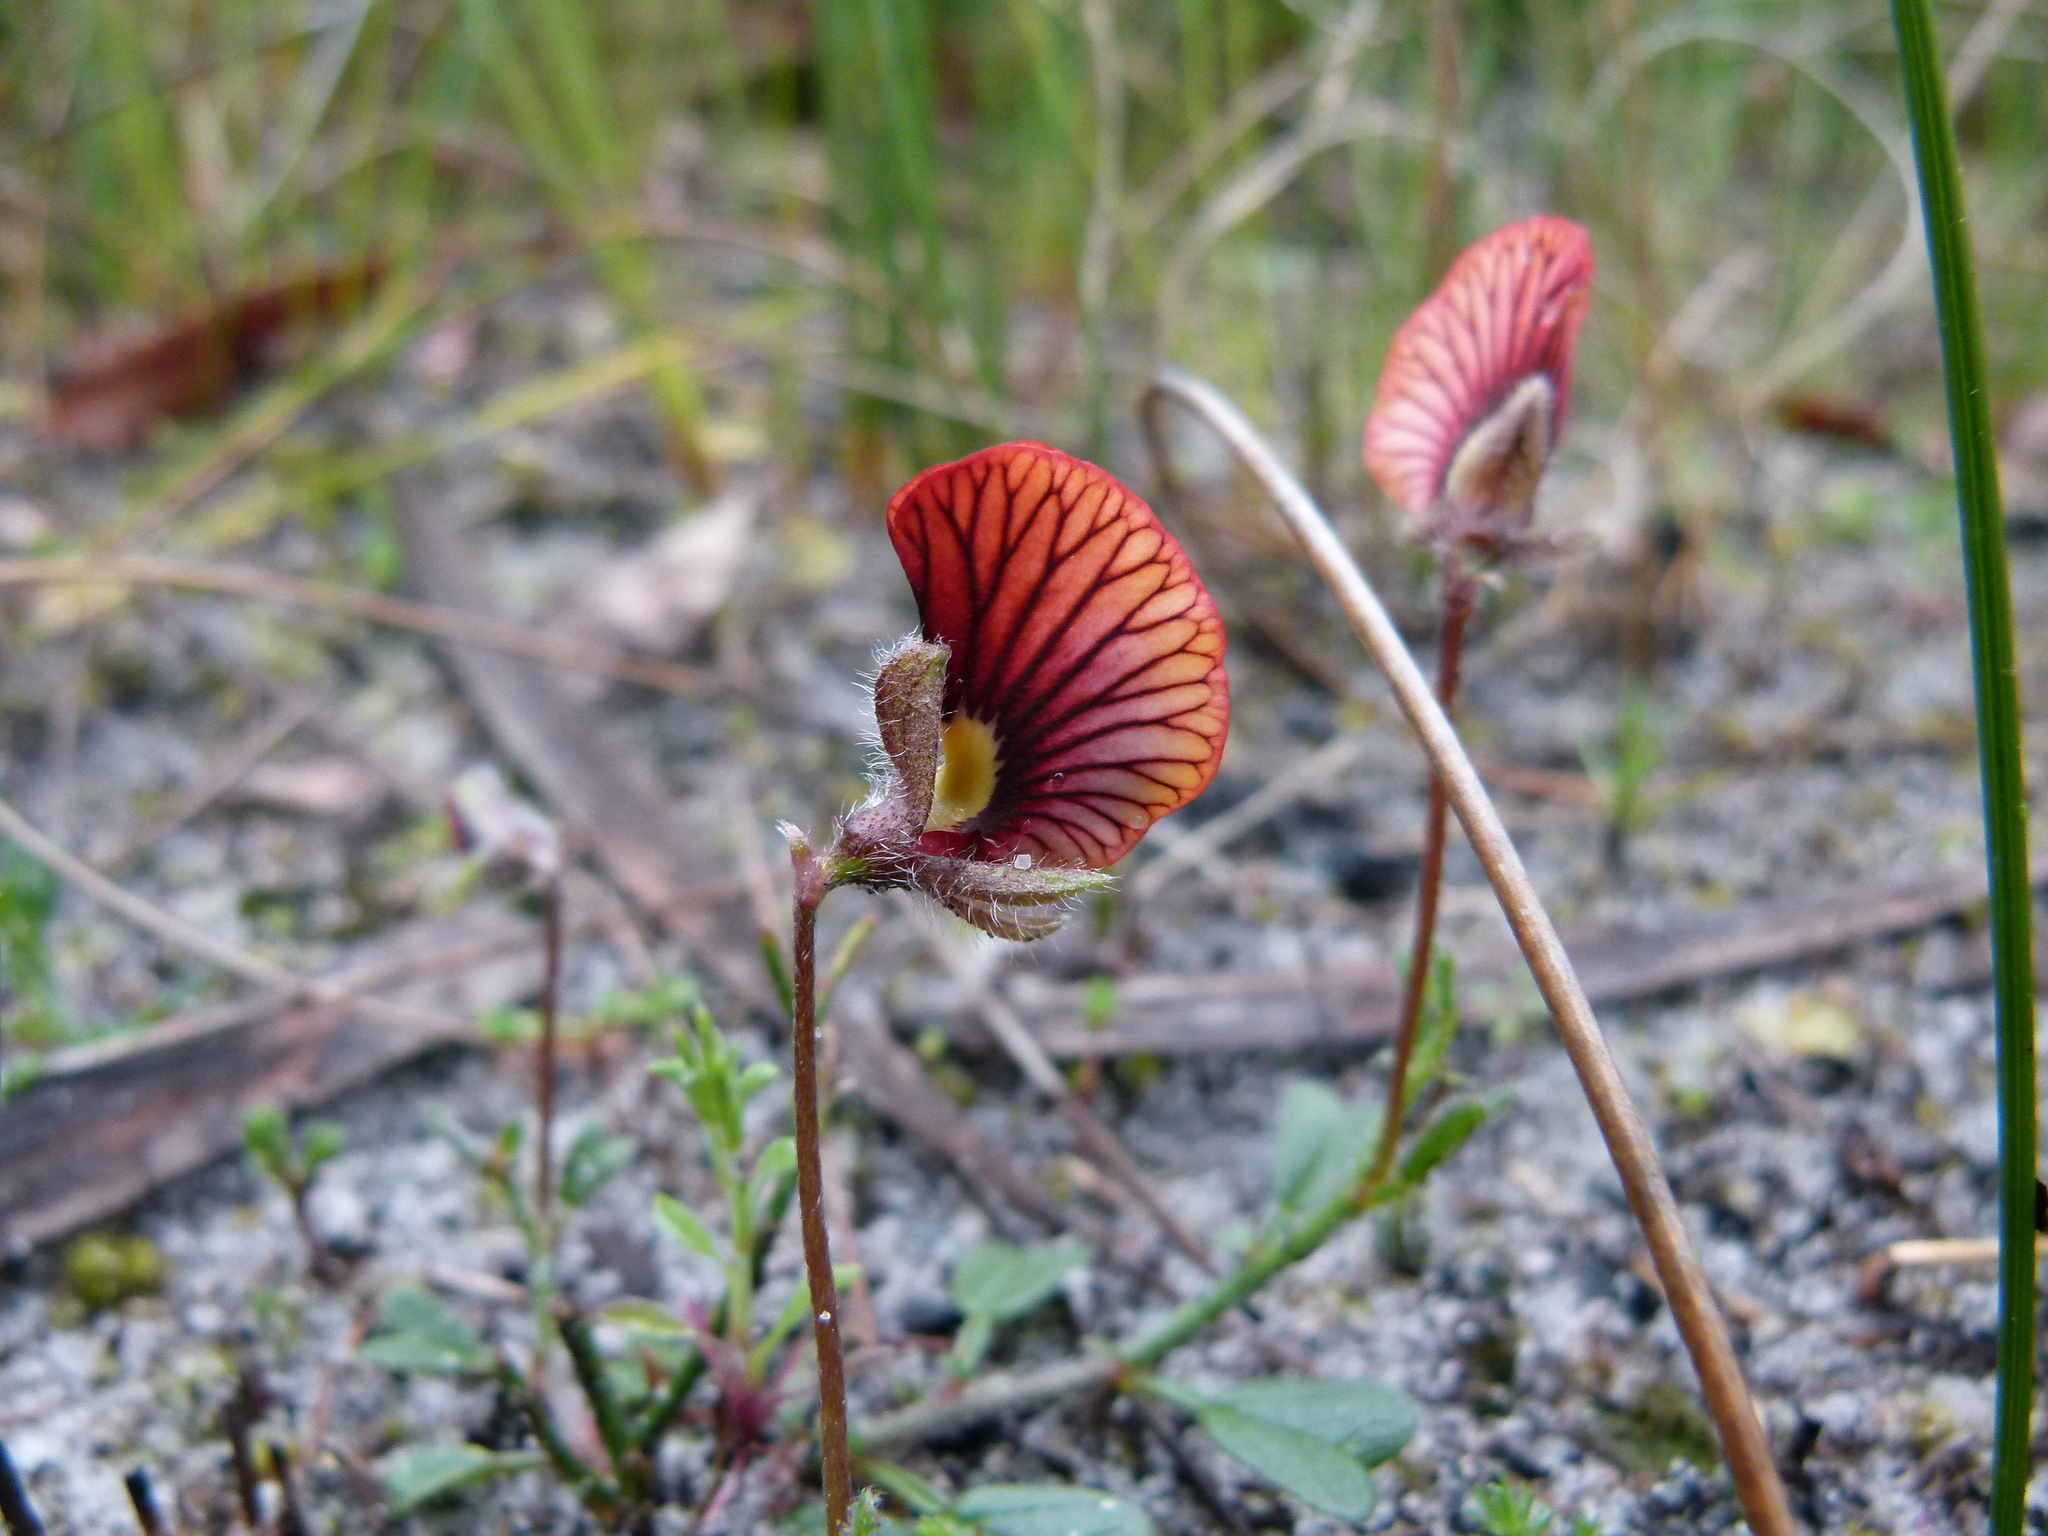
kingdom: Plantae
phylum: Tracheophyta
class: Magnoliopsida
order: Fabales
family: Fabaceae
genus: Isotropis
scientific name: Isotropis cuneifolia
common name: Granny bonnets
